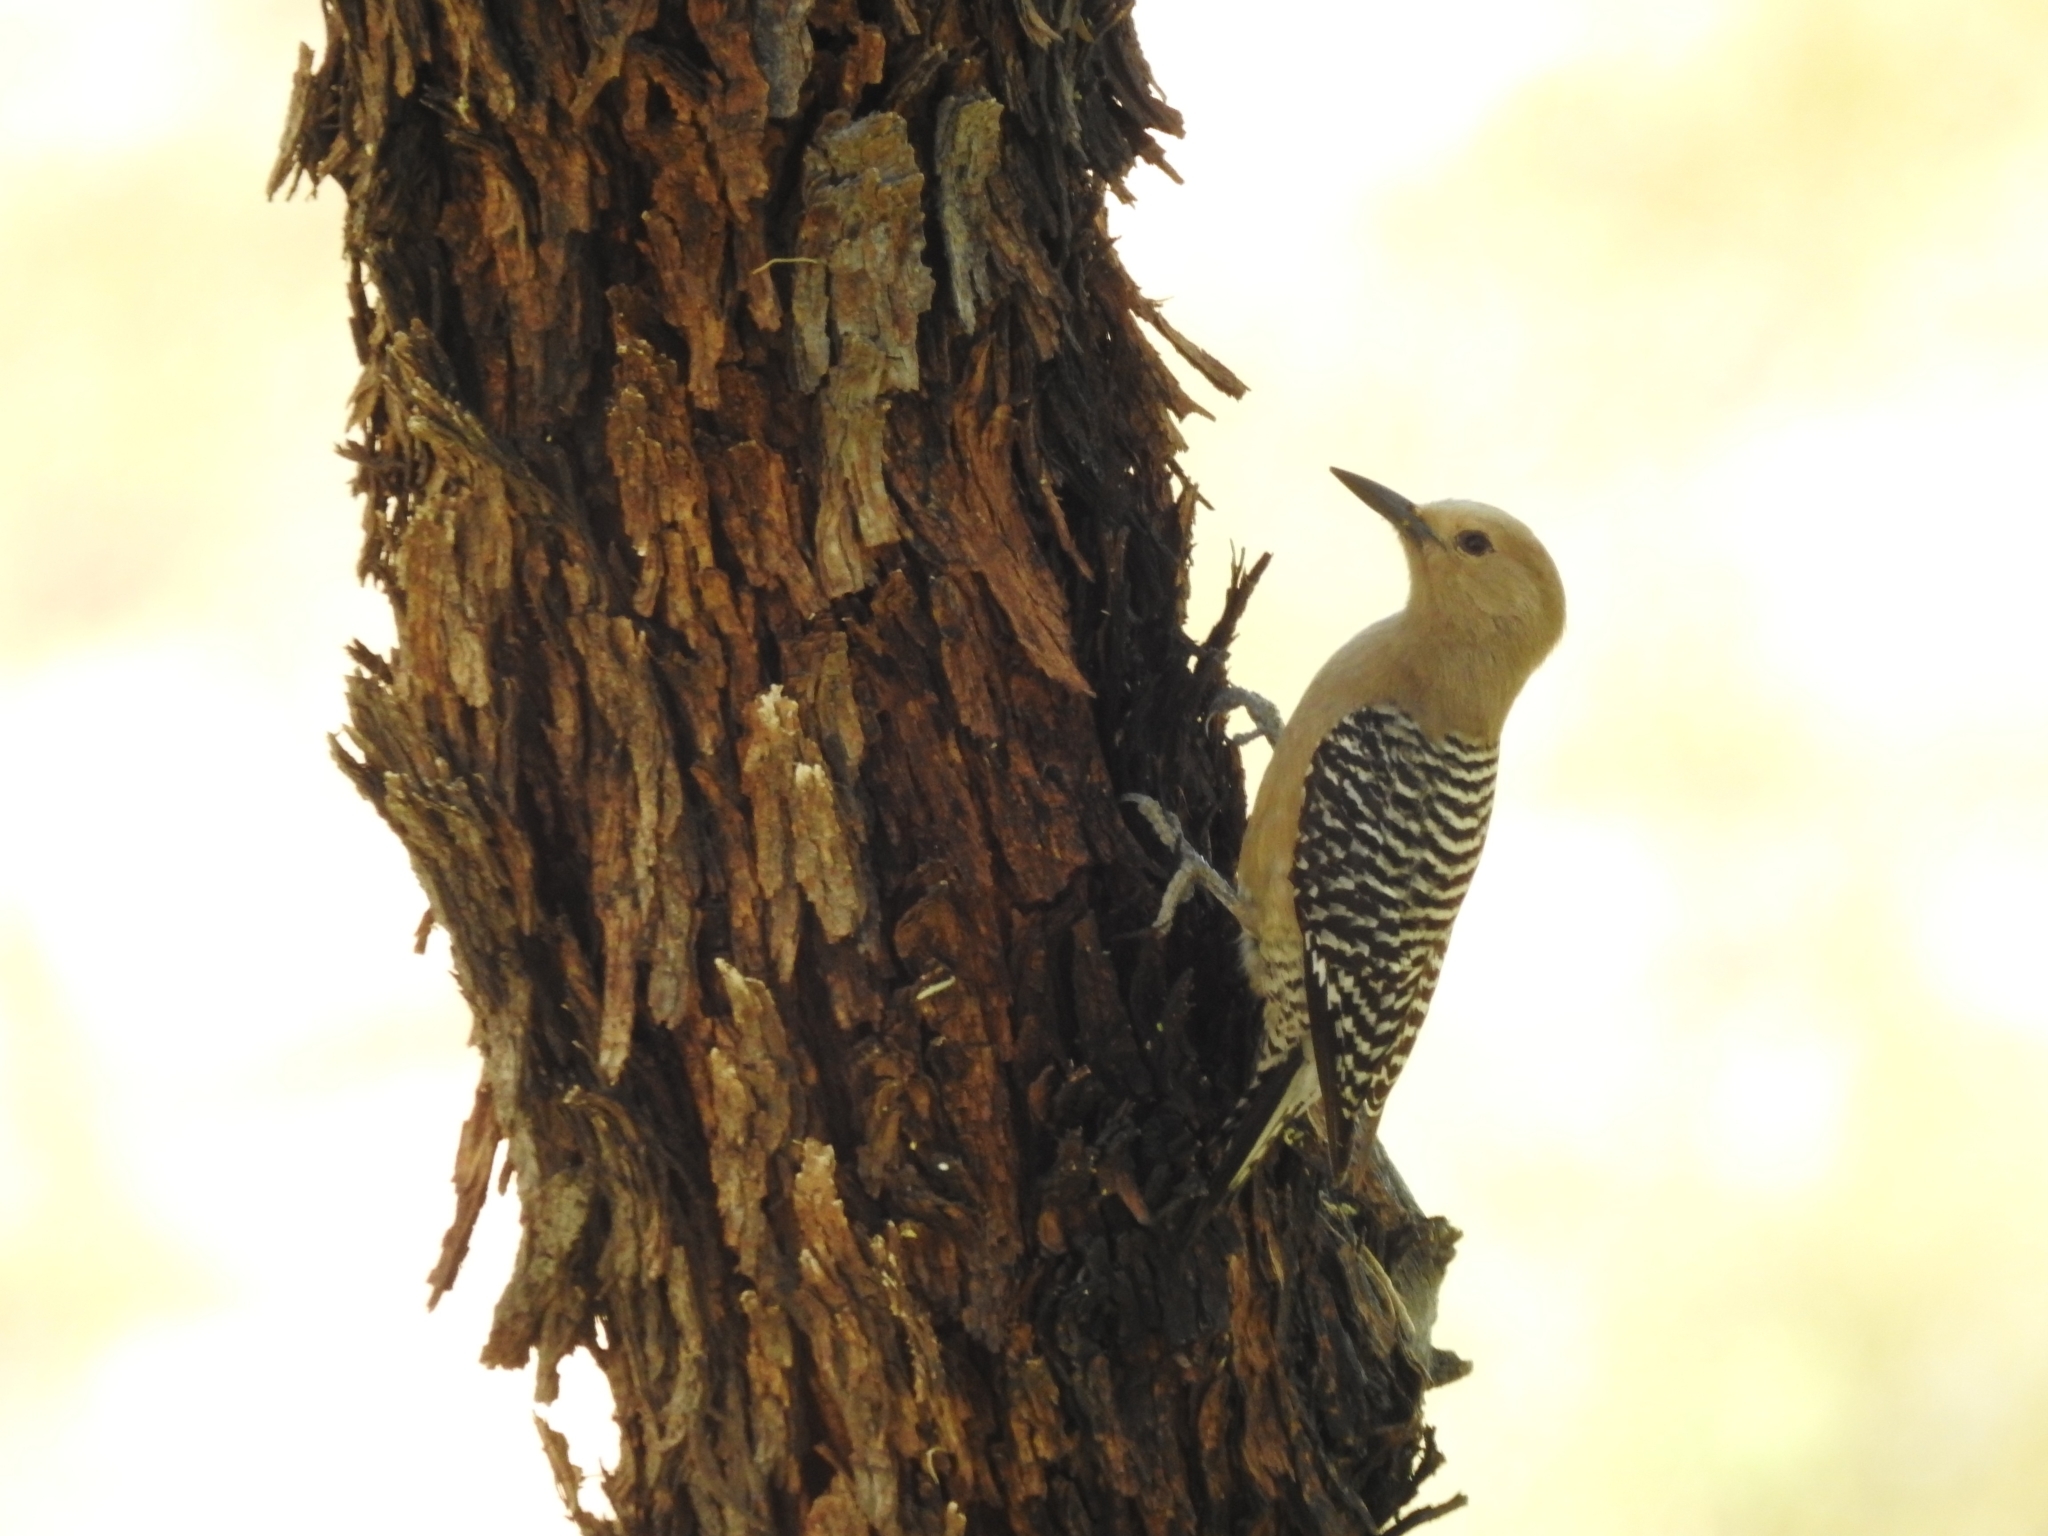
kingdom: Animalia
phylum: Chordata
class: Aves
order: Piciformes
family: Picidae
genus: Melanerpes
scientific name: Melanerpes uropygialis
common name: Gila woodpecker
